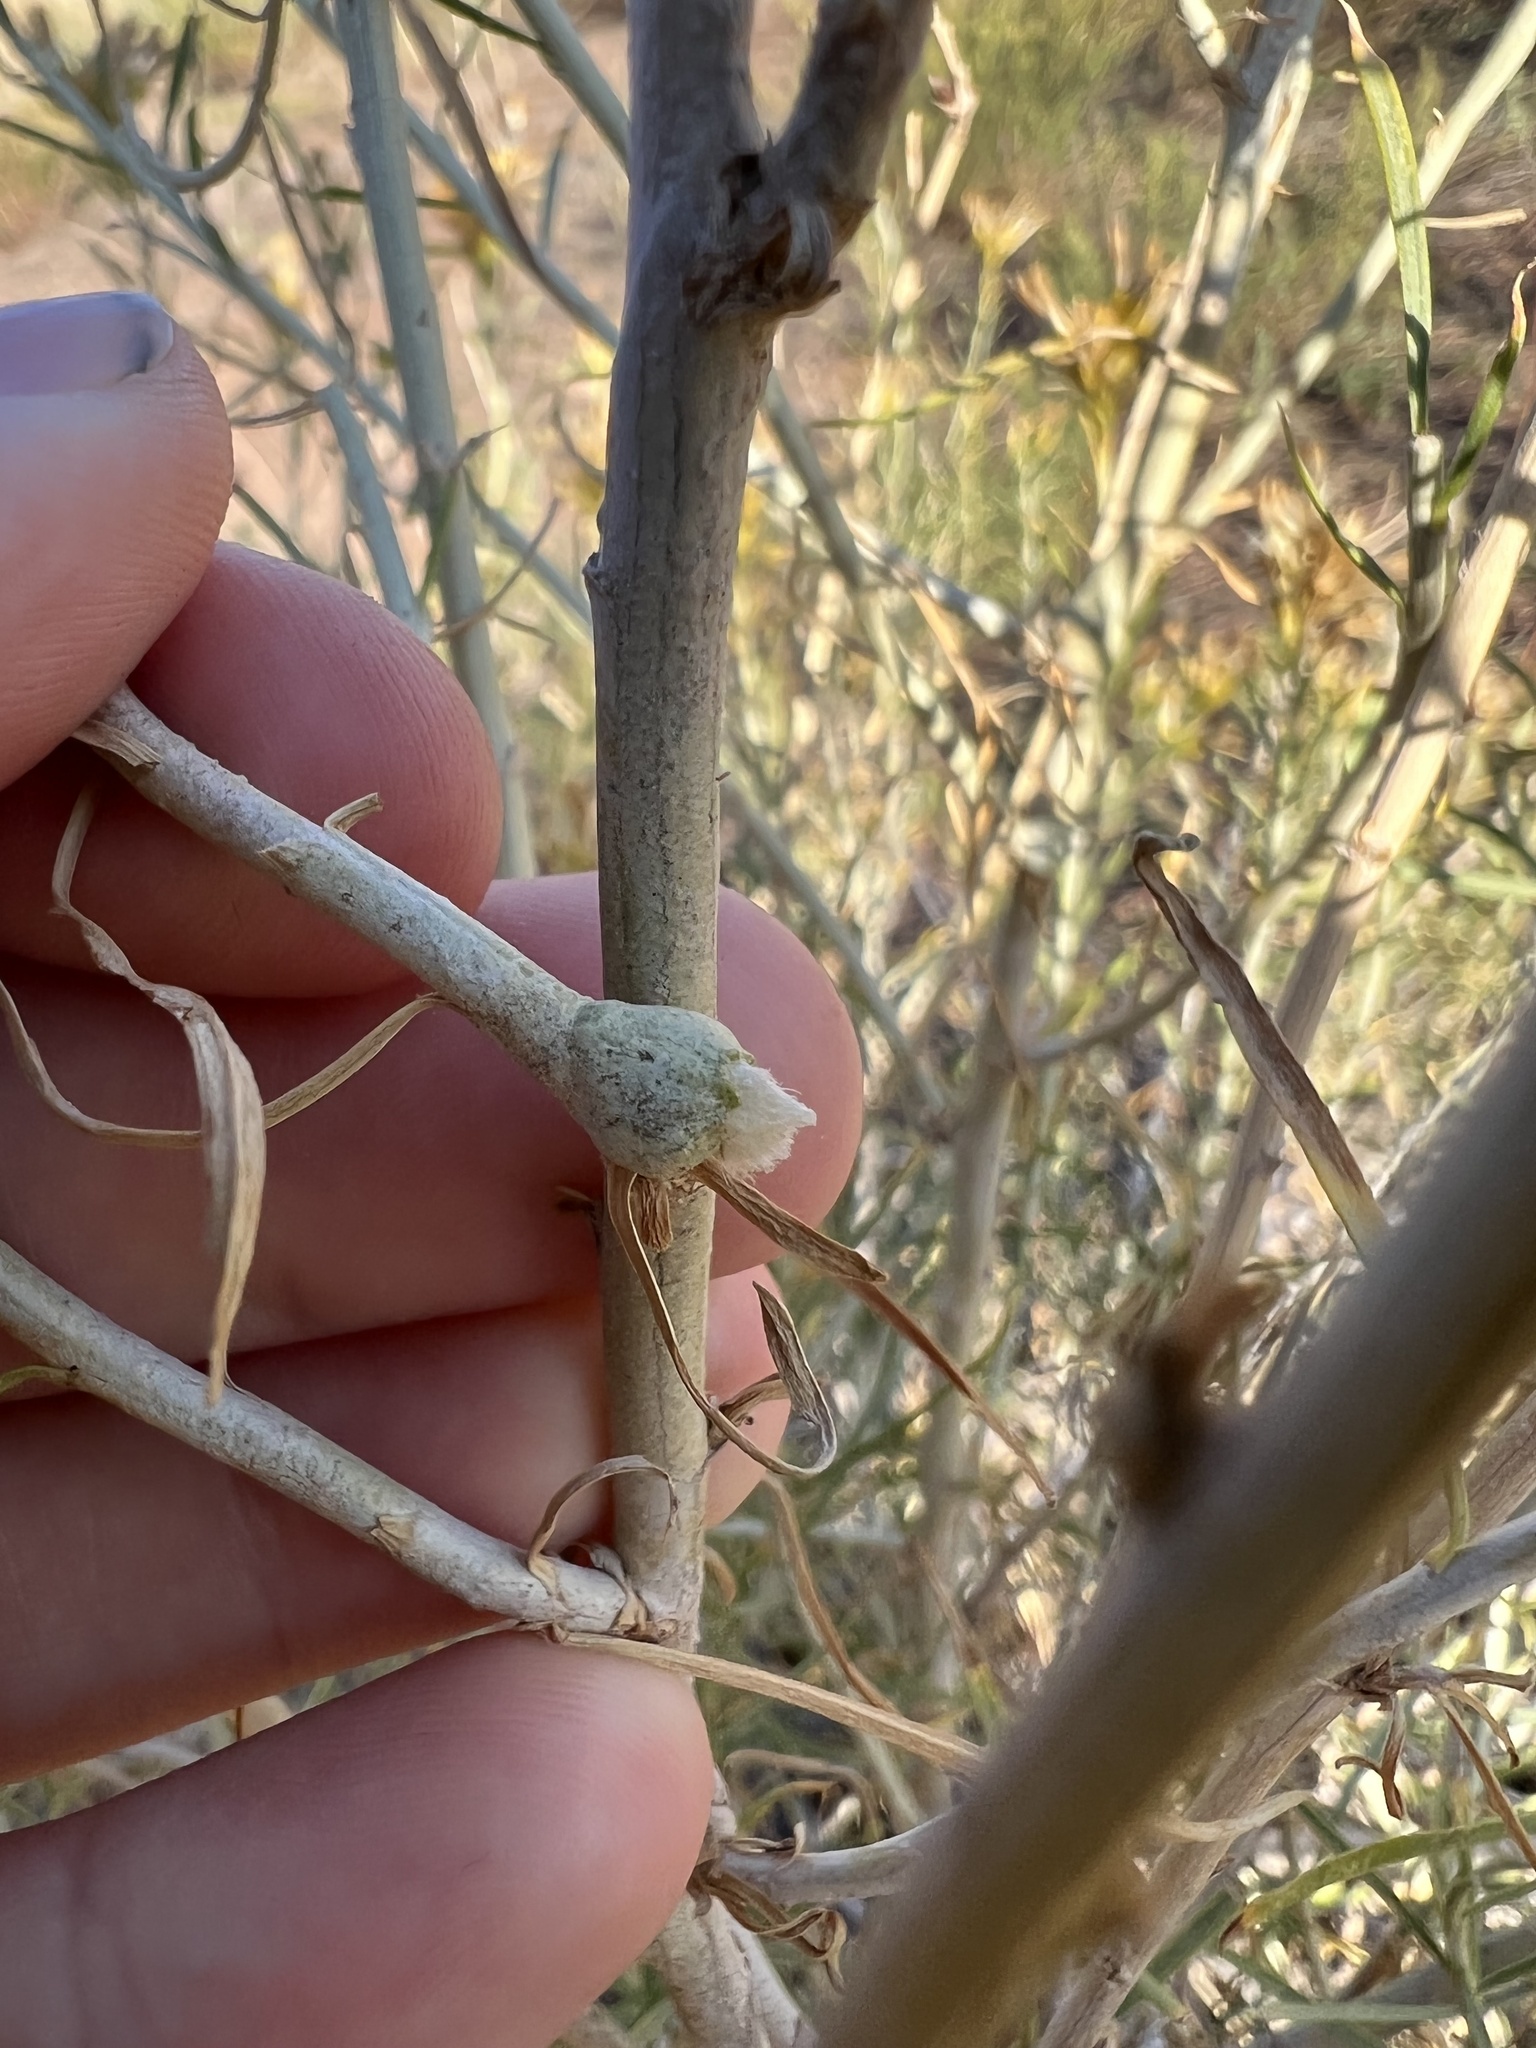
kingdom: Animalia
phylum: Arthropoda
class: Insecta
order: Diptera
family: Cecidomyiidae
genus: Rhopalomyia
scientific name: Rhopalomyia chrysothamni
